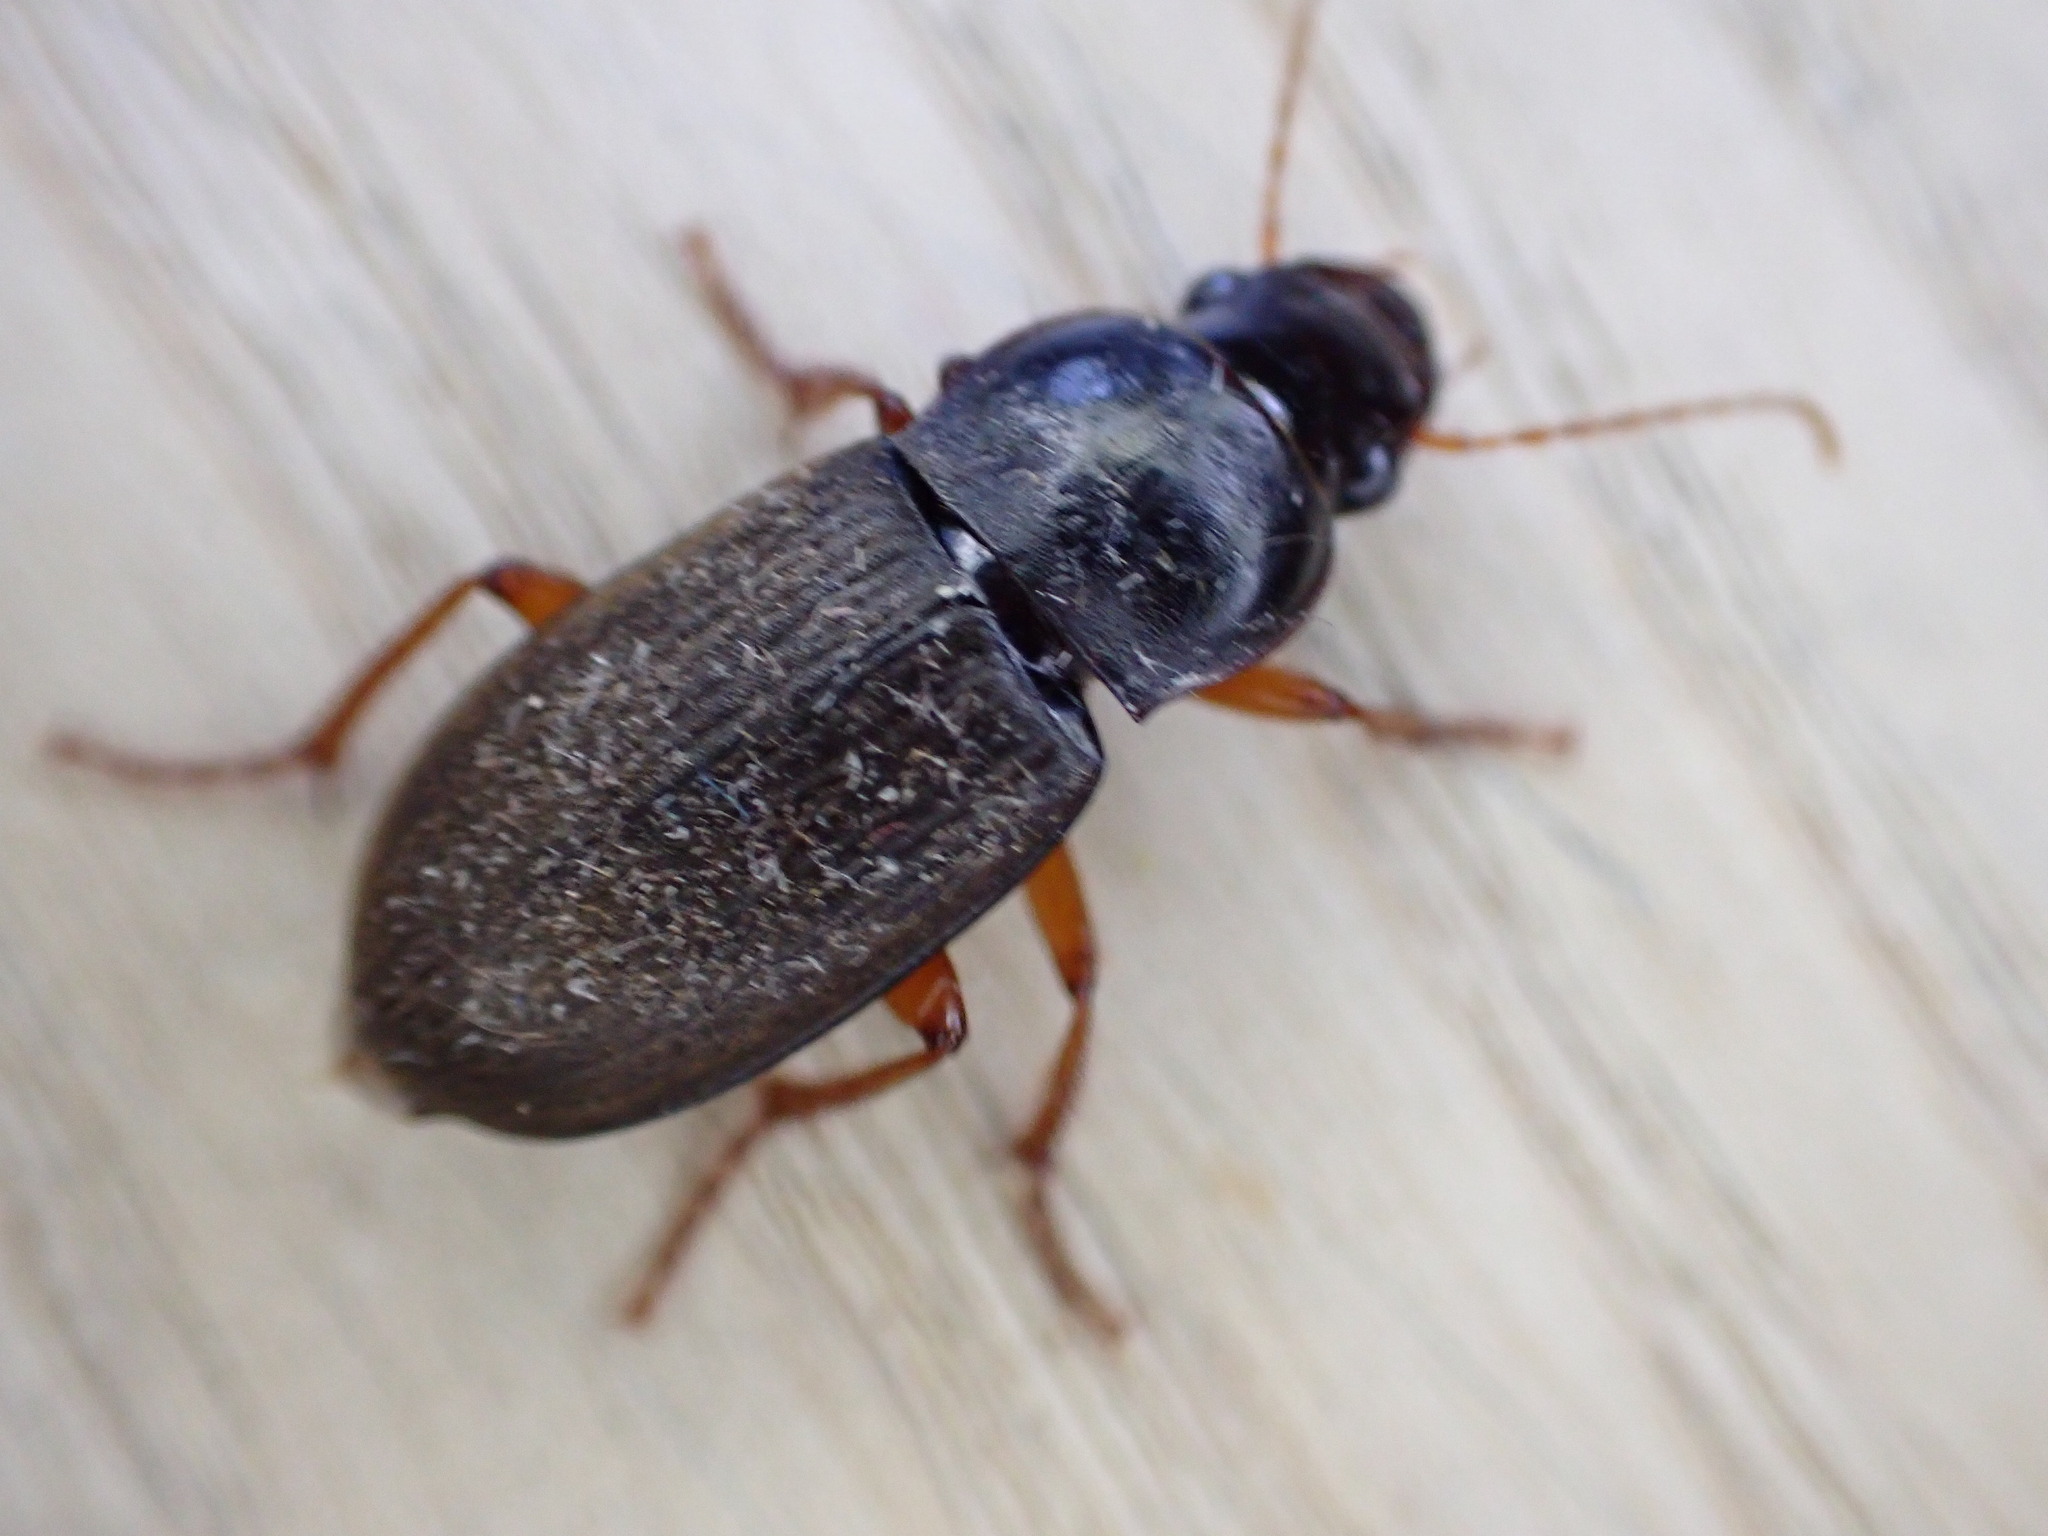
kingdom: Animalia
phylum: Arthropoda
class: Insecta
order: Coleoptera
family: Carabidae
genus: Harpalus
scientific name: Harpalus rufipes
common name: Strawberry harp ground beetle
